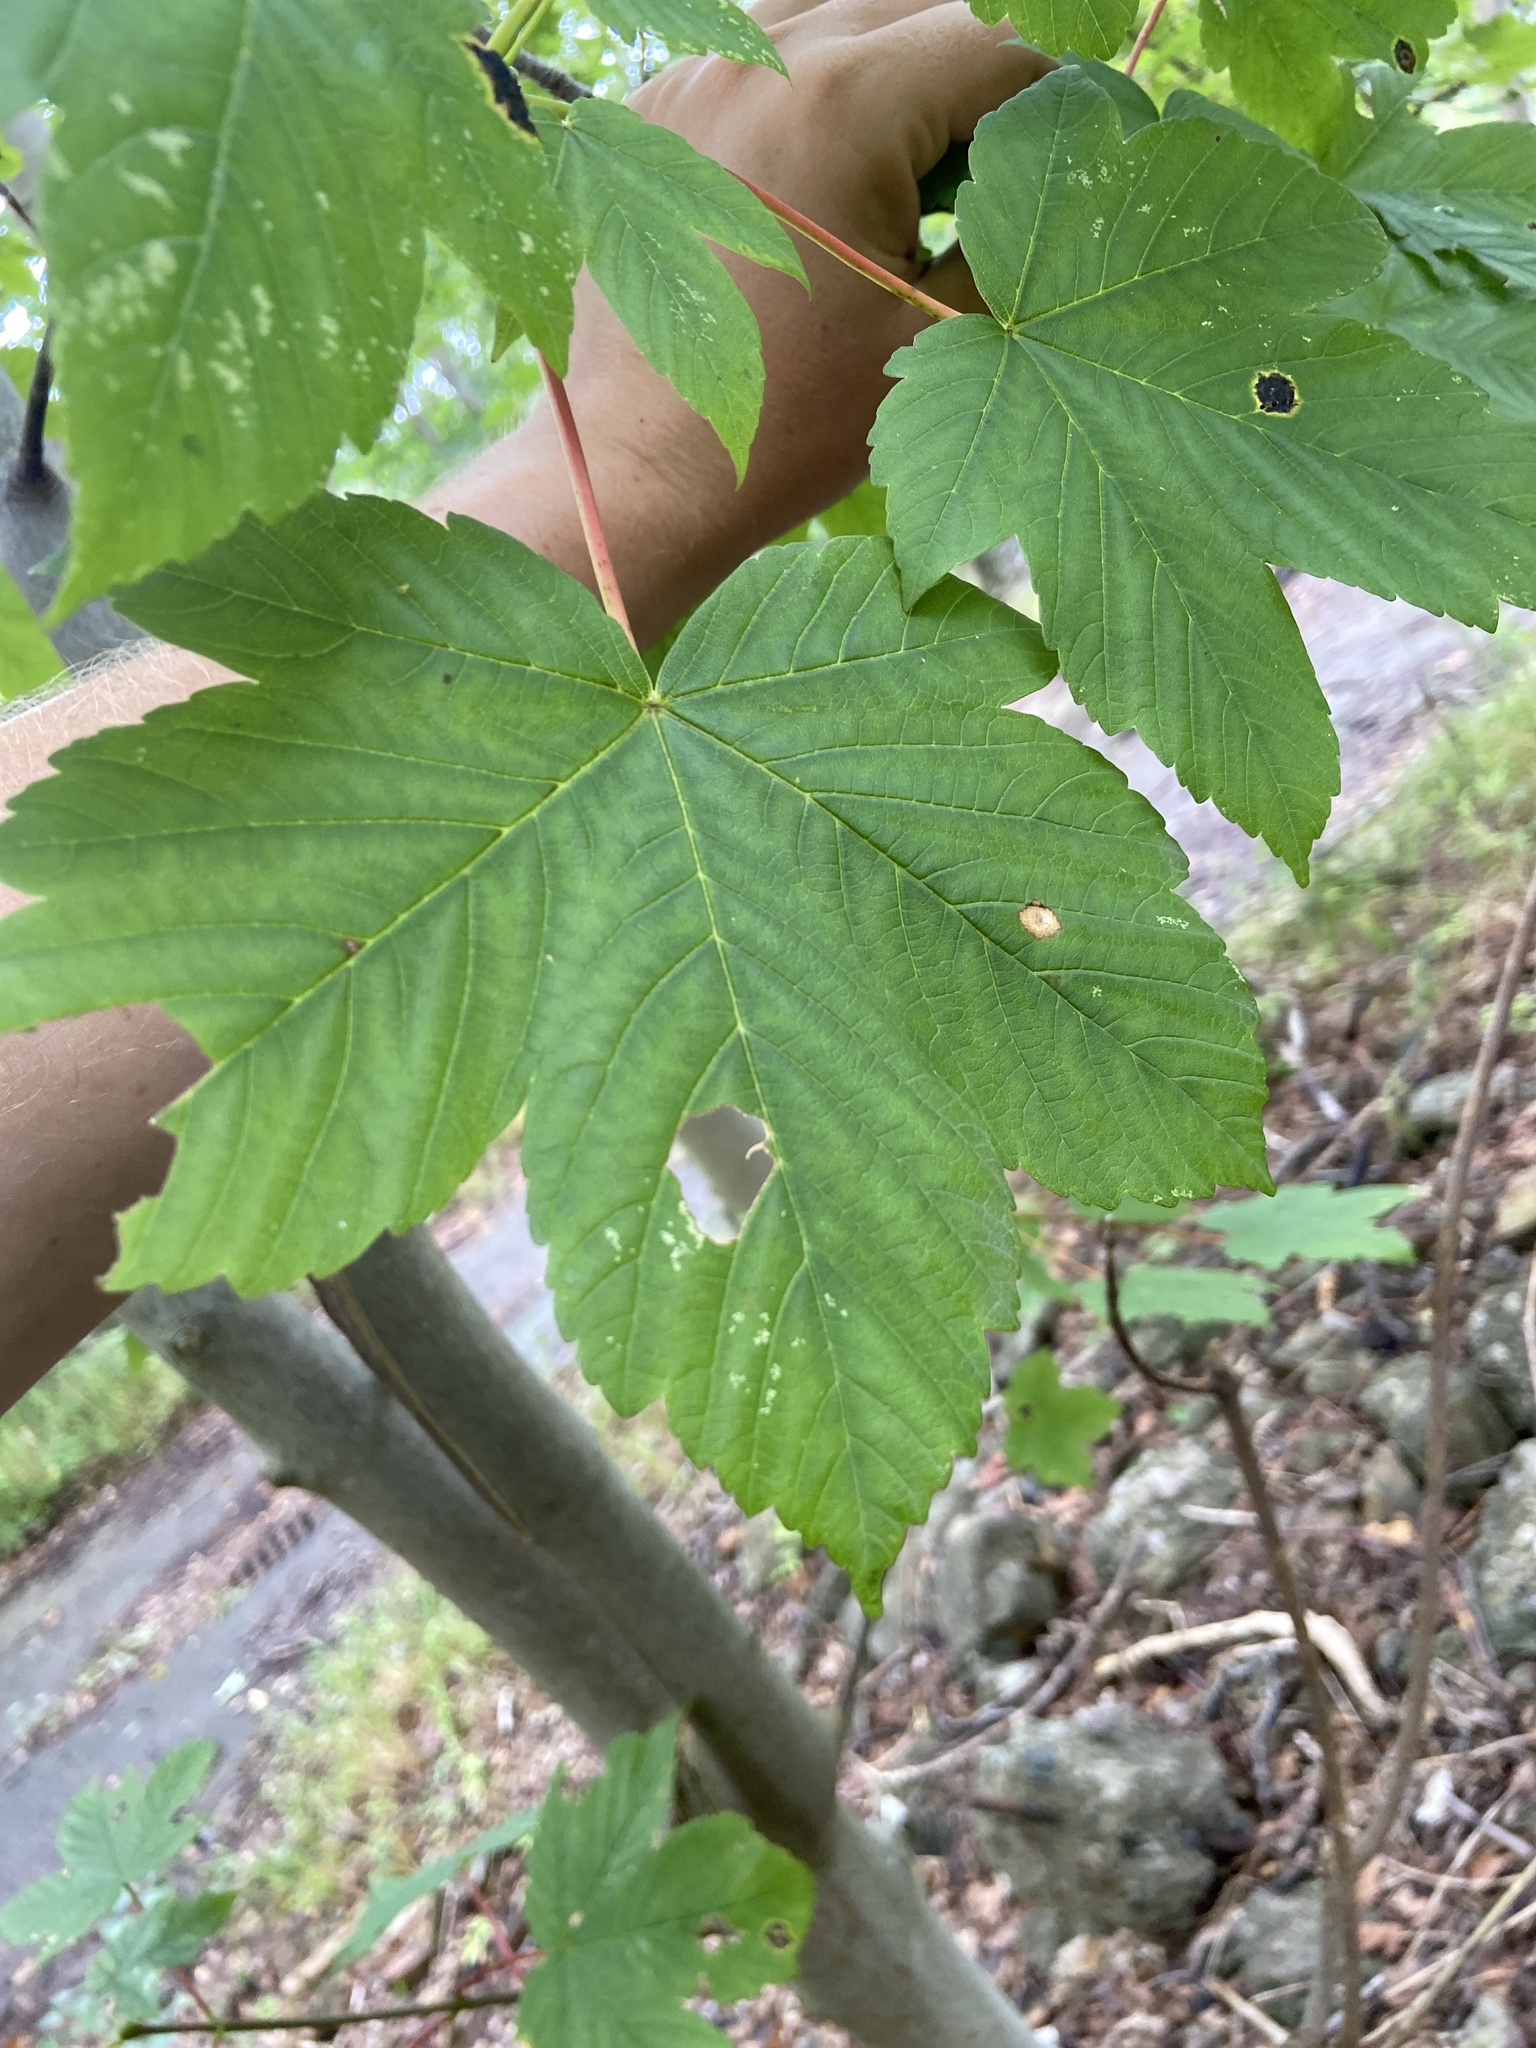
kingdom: Animalia
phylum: Arthropoda
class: Insecta
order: Lepidoptera
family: Noctuidae
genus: Acronicta
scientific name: Acronicta aceris
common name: Sycamore
